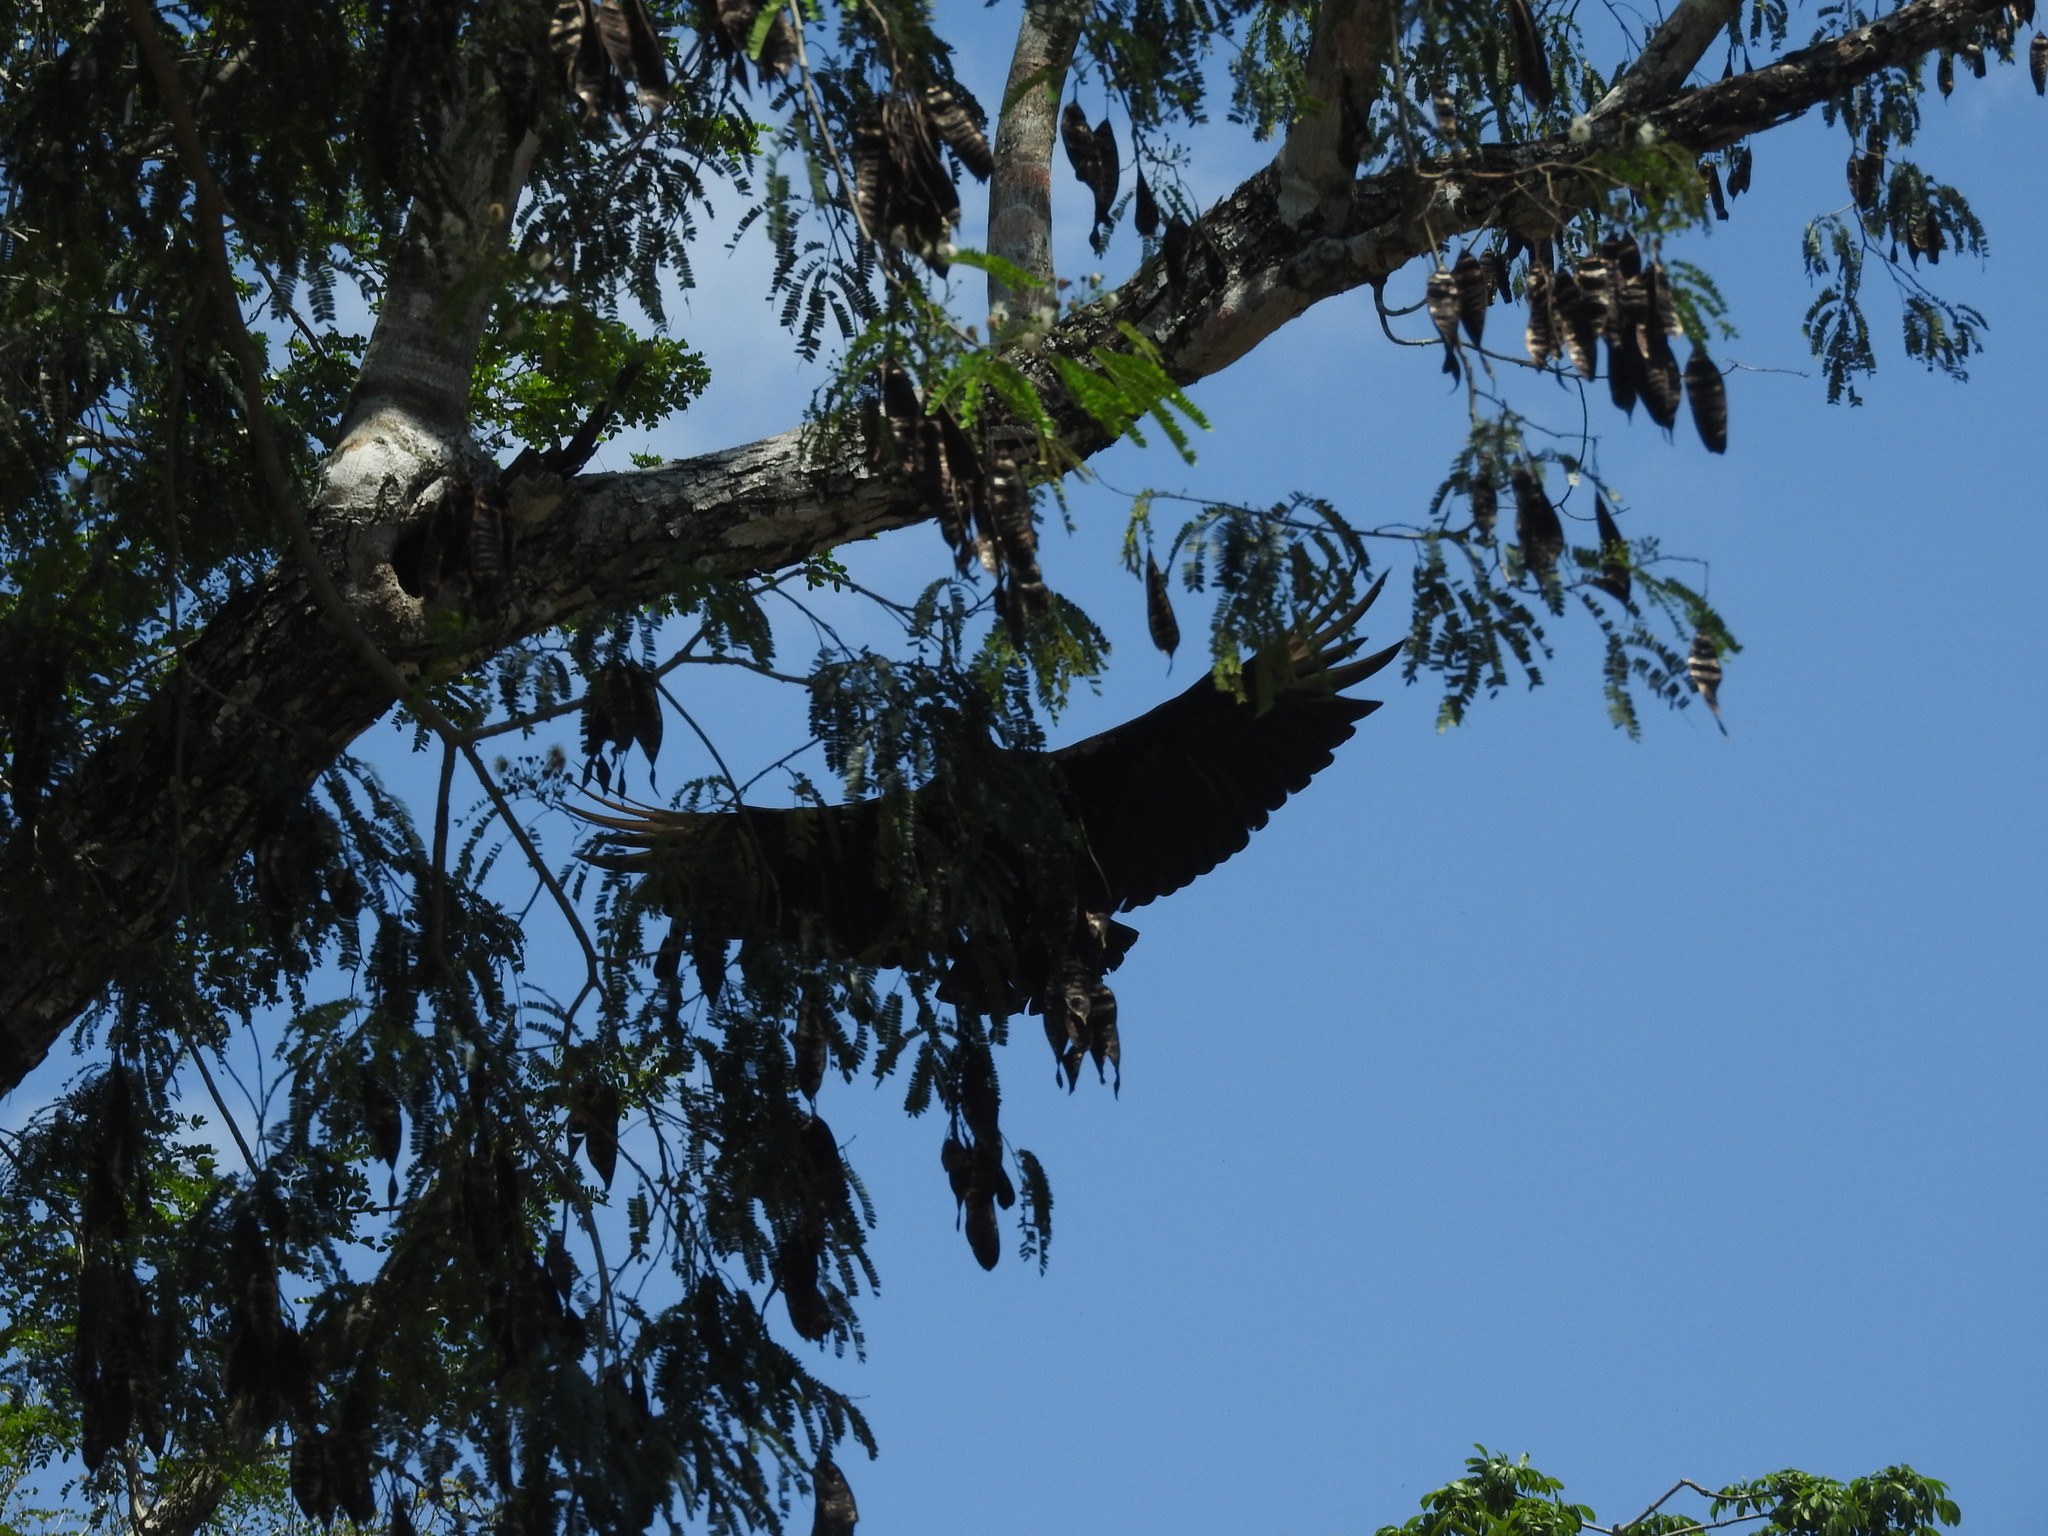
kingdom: Animalia
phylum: Chordata
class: Aves
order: Accipitriformes
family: Cathartidae
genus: Coragyps
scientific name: Coragyps atratus
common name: Black vulture
